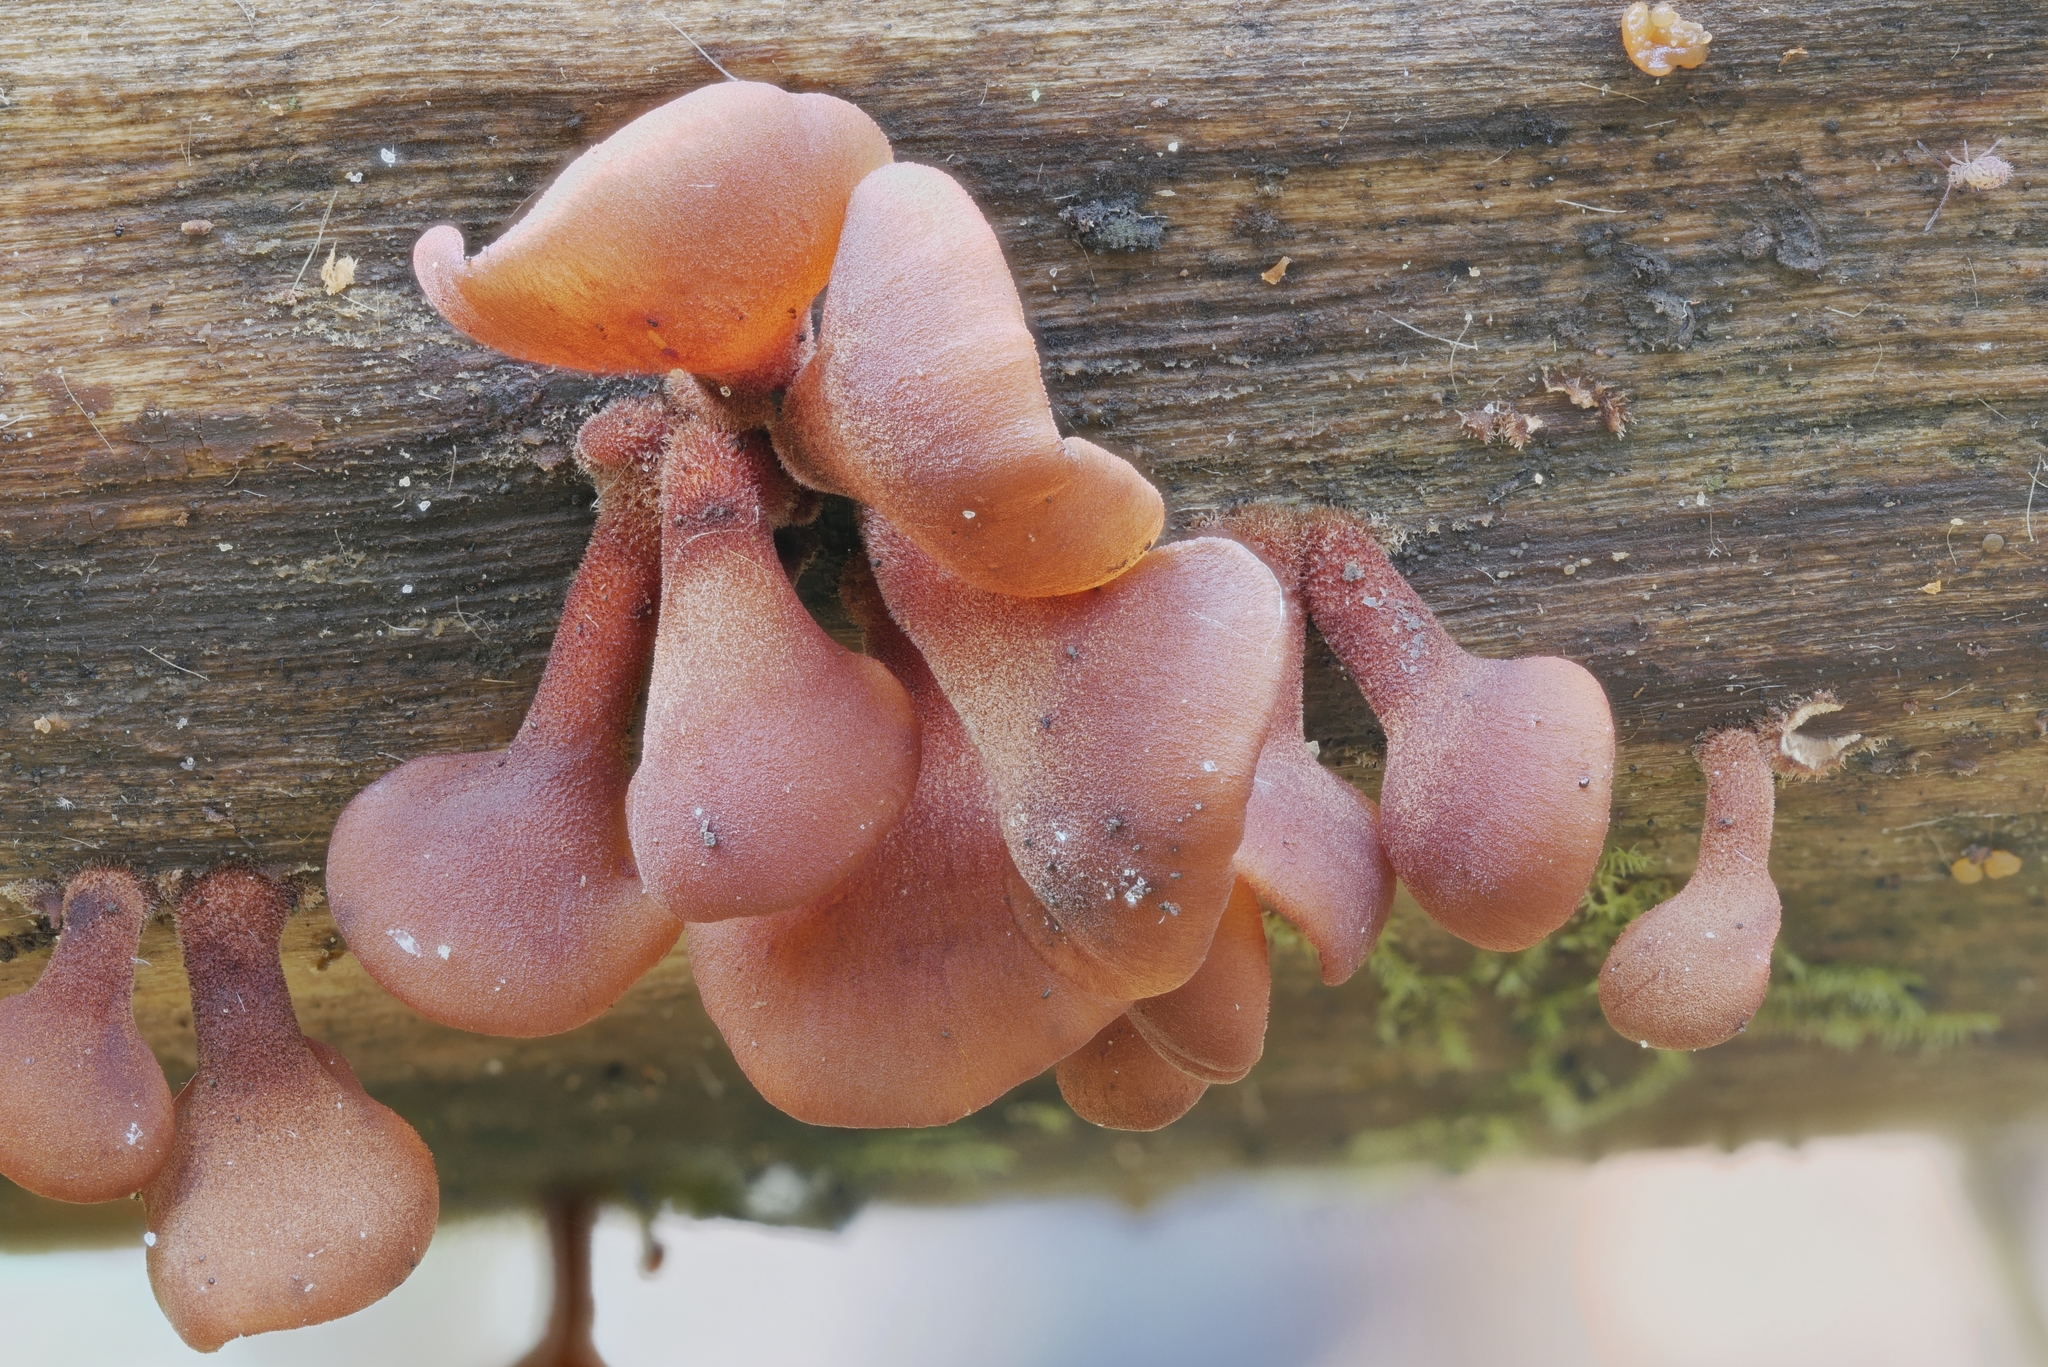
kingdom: Fungi
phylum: Basidiomycota
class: Dacrymycetes
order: Dacrymycetales
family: Dacrymycetaceae
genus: Dacryopinax
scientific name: Dacryopinax elegans
